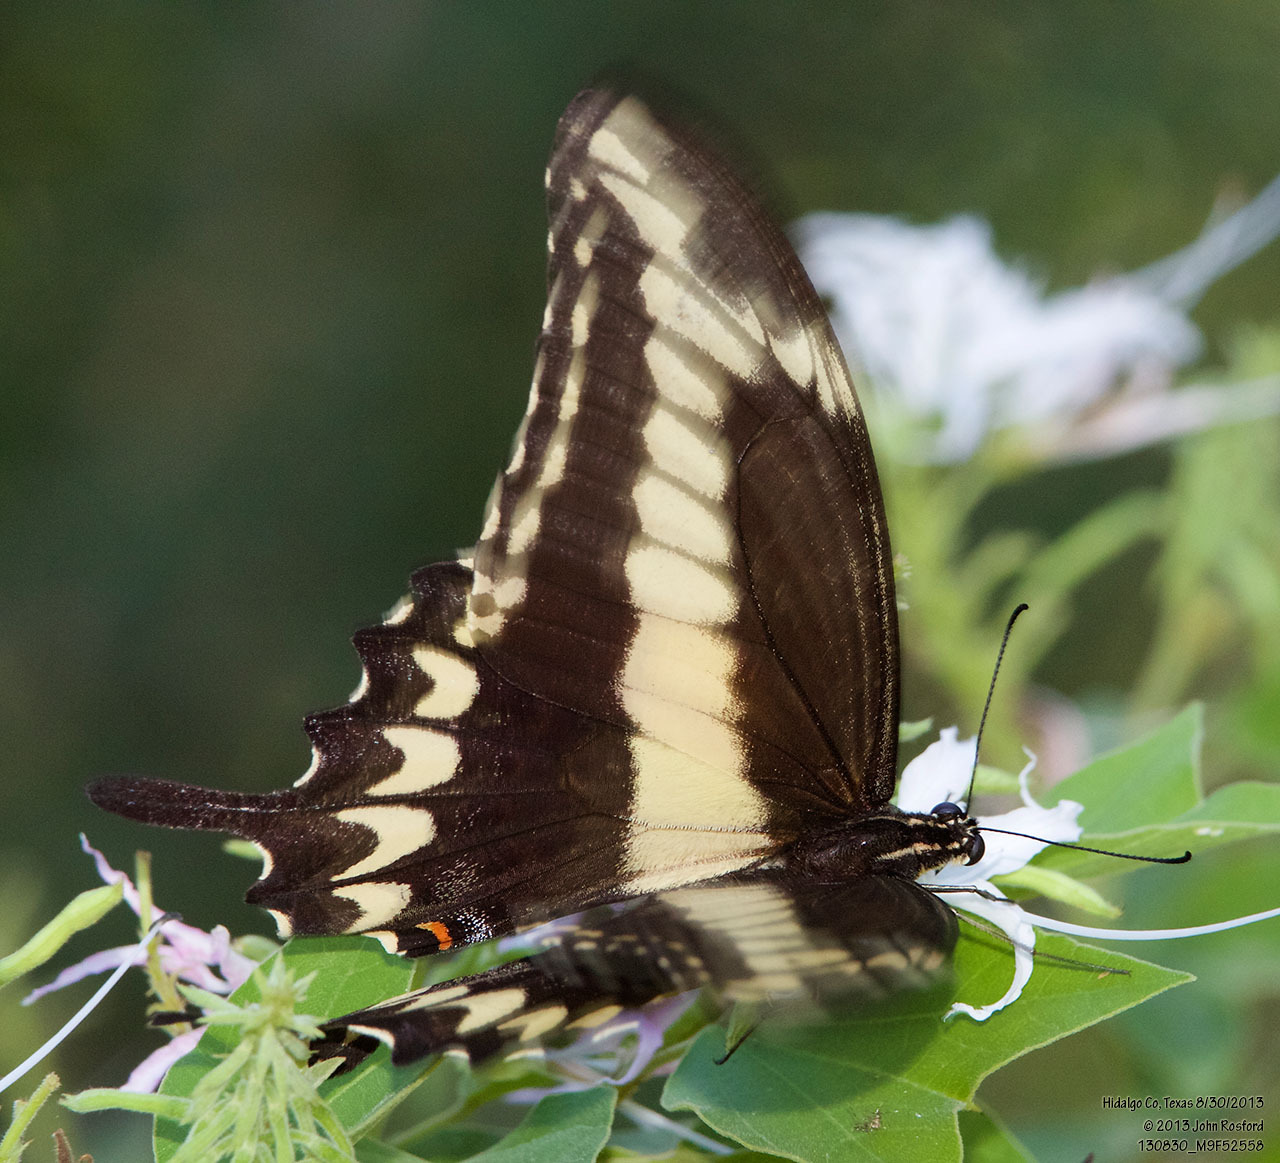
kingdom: Animalia
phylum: Arthropoda
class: Insecta
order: Lepidoptera
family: Papilionidae
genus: Papilio
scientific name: Papilio ornythion
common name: Ornythion swallowtail
